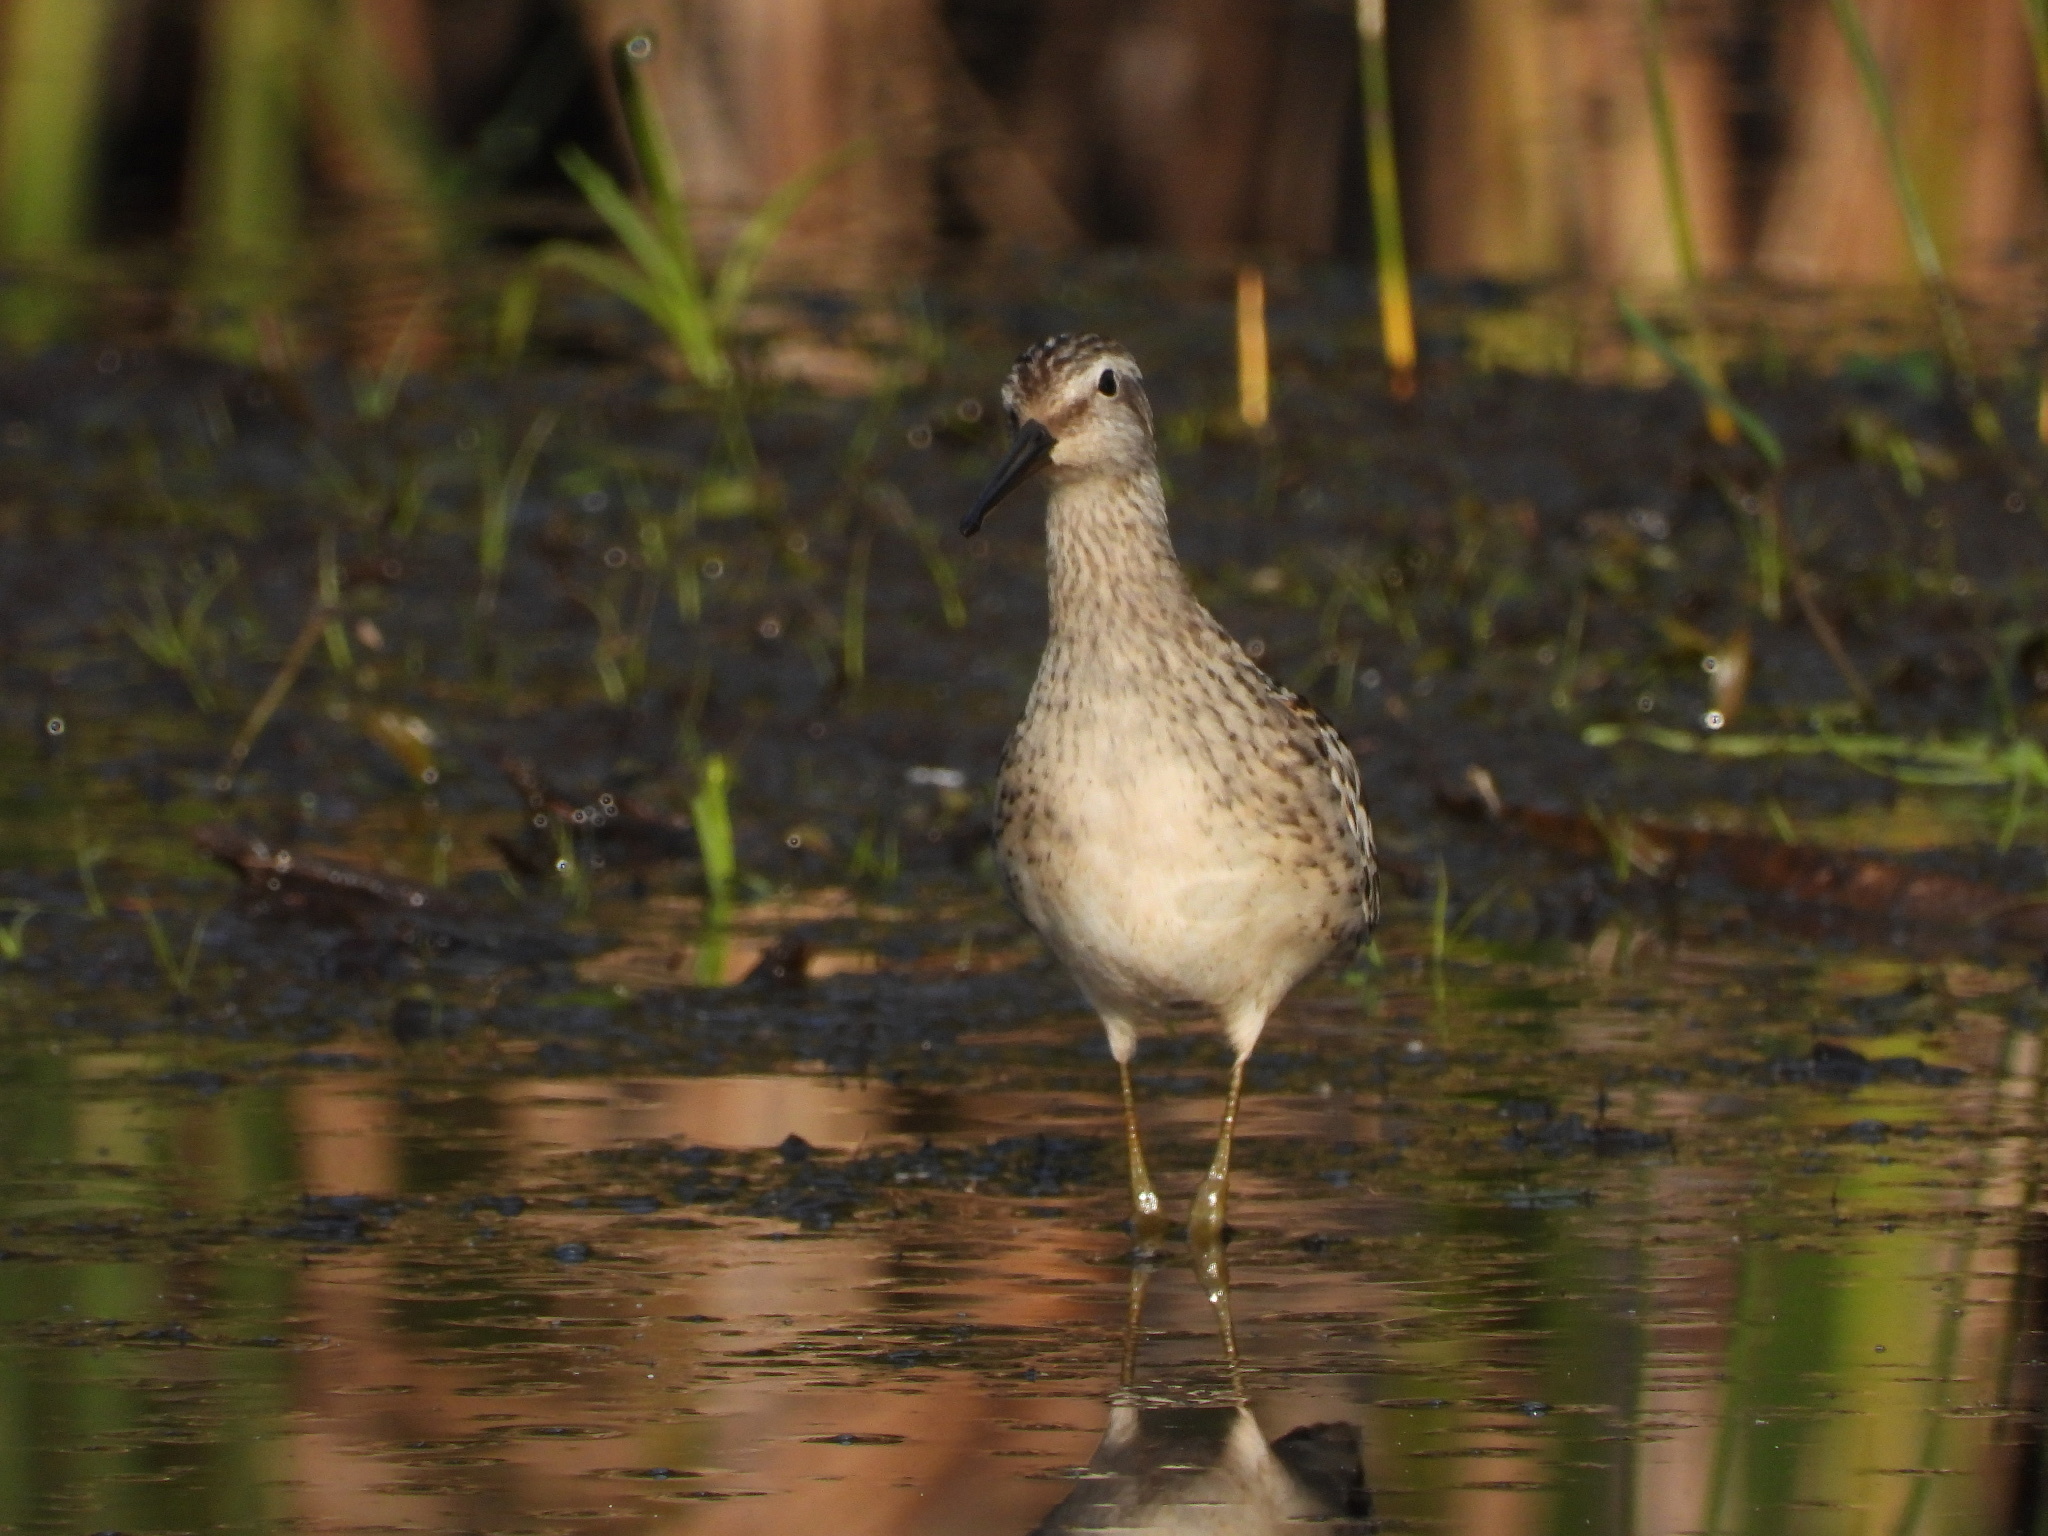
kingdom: Animalia
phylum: Chordata
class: Aves
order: Charadriiformes
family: Scolopacidae
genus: Calidris
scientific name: Calidris himantopus
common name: Stilt sandpiper
